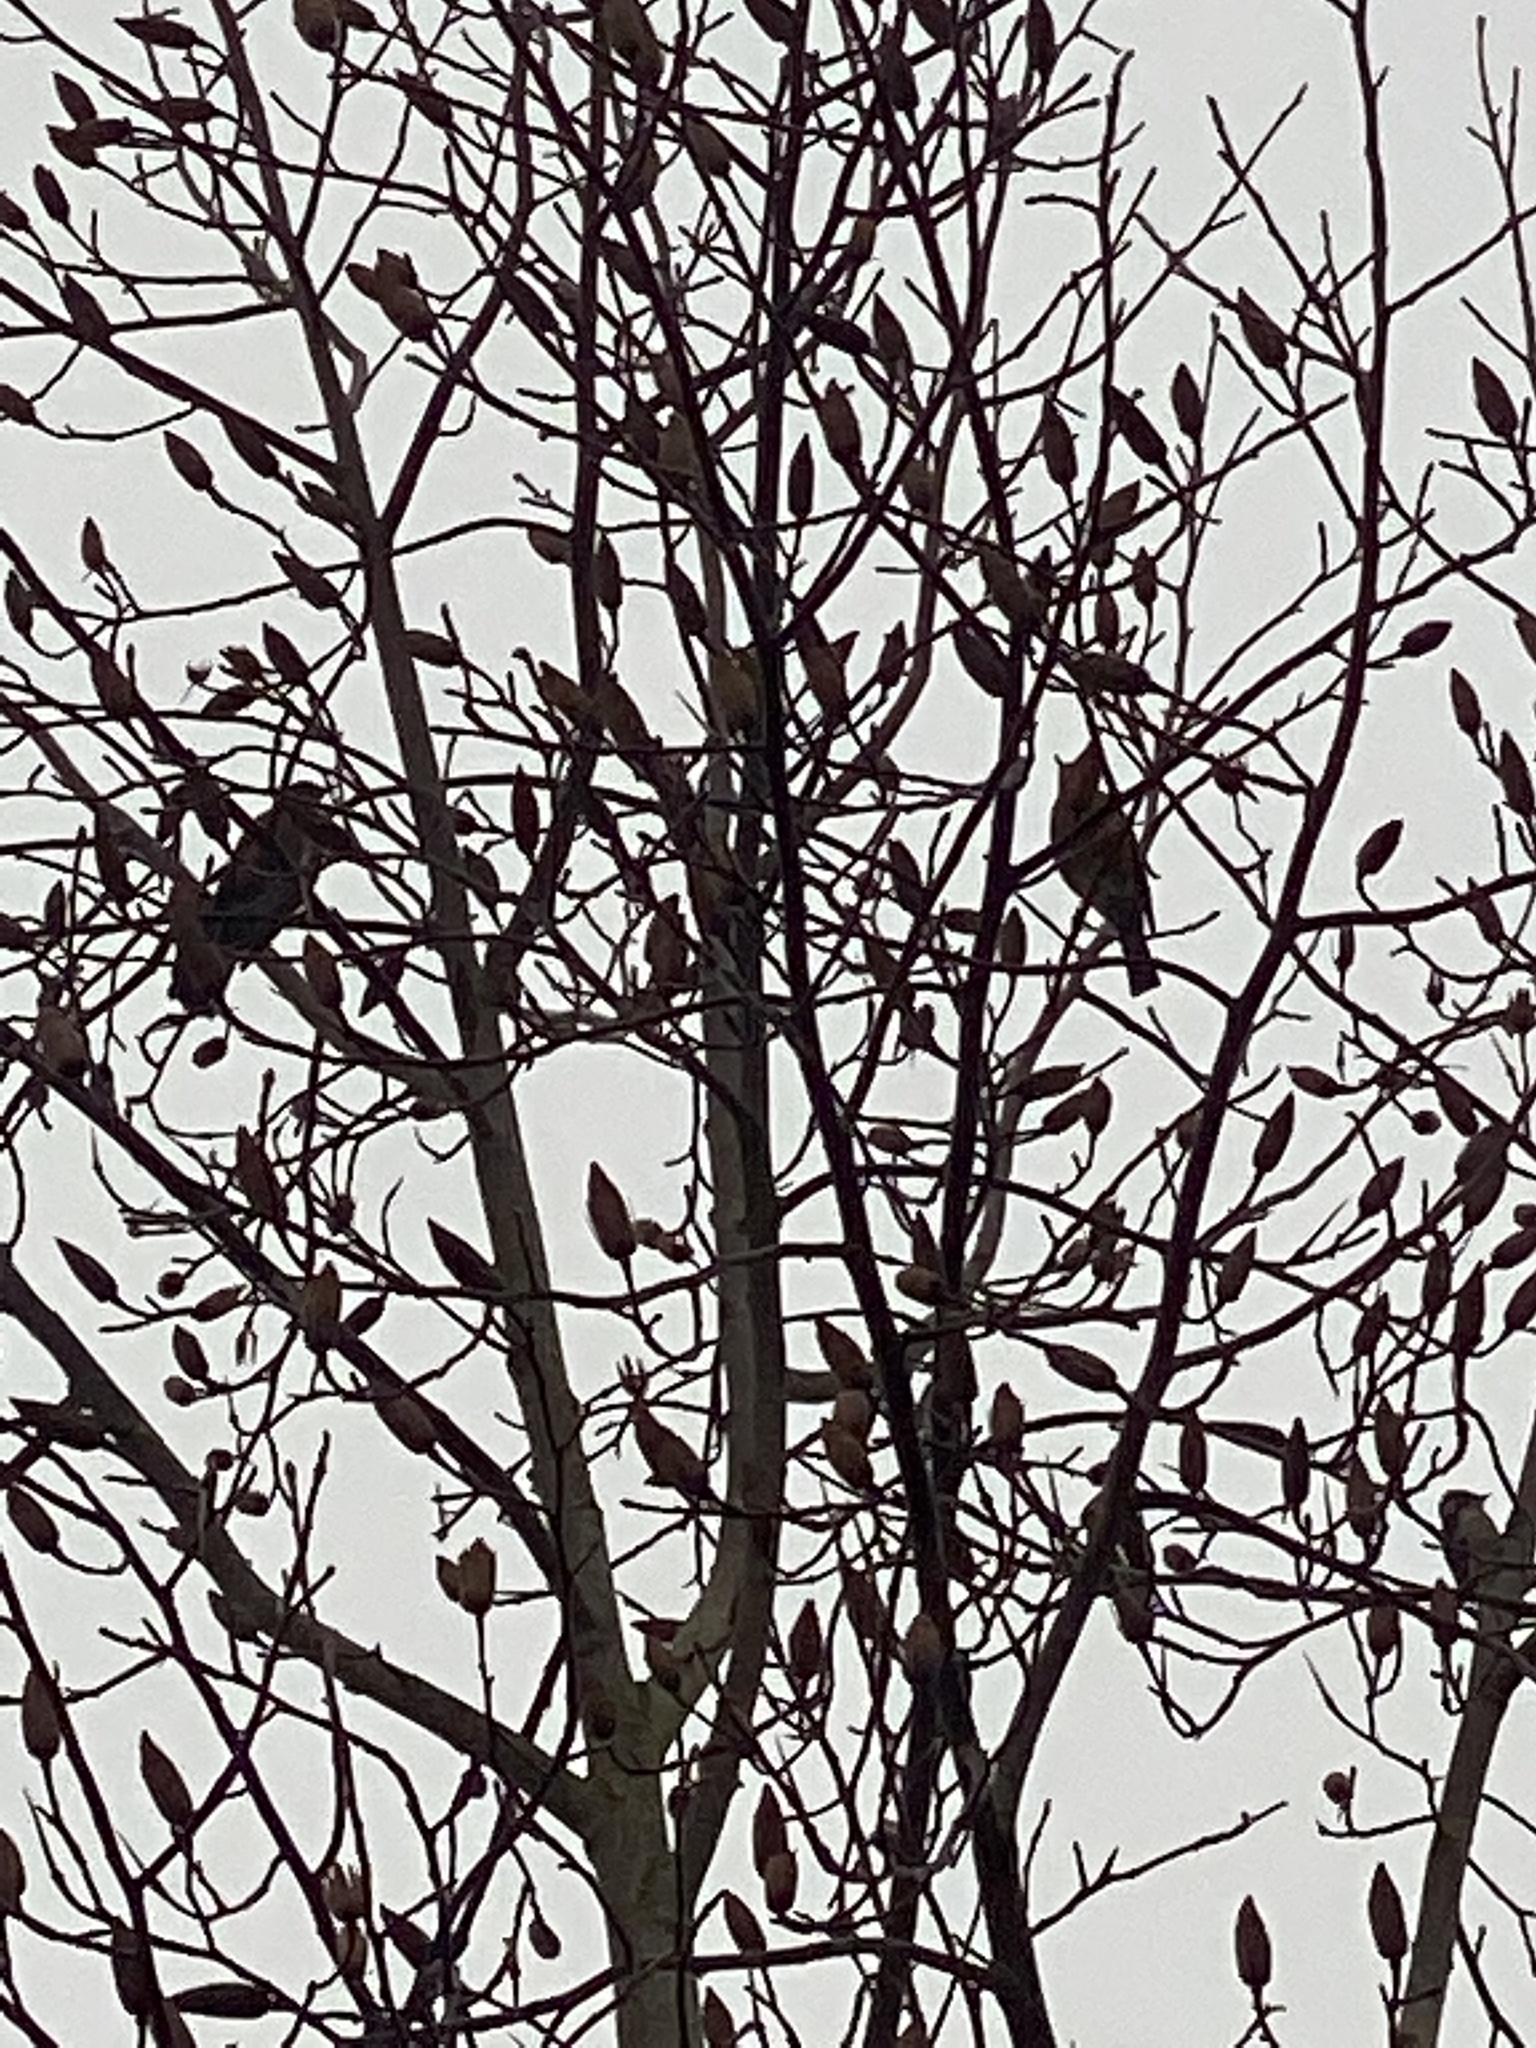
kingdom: Animalia
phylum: Chordata
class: Aves
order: Passeriformes
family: Turdidae
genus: Turdus
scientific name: Turdus migratorius
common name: American robin
